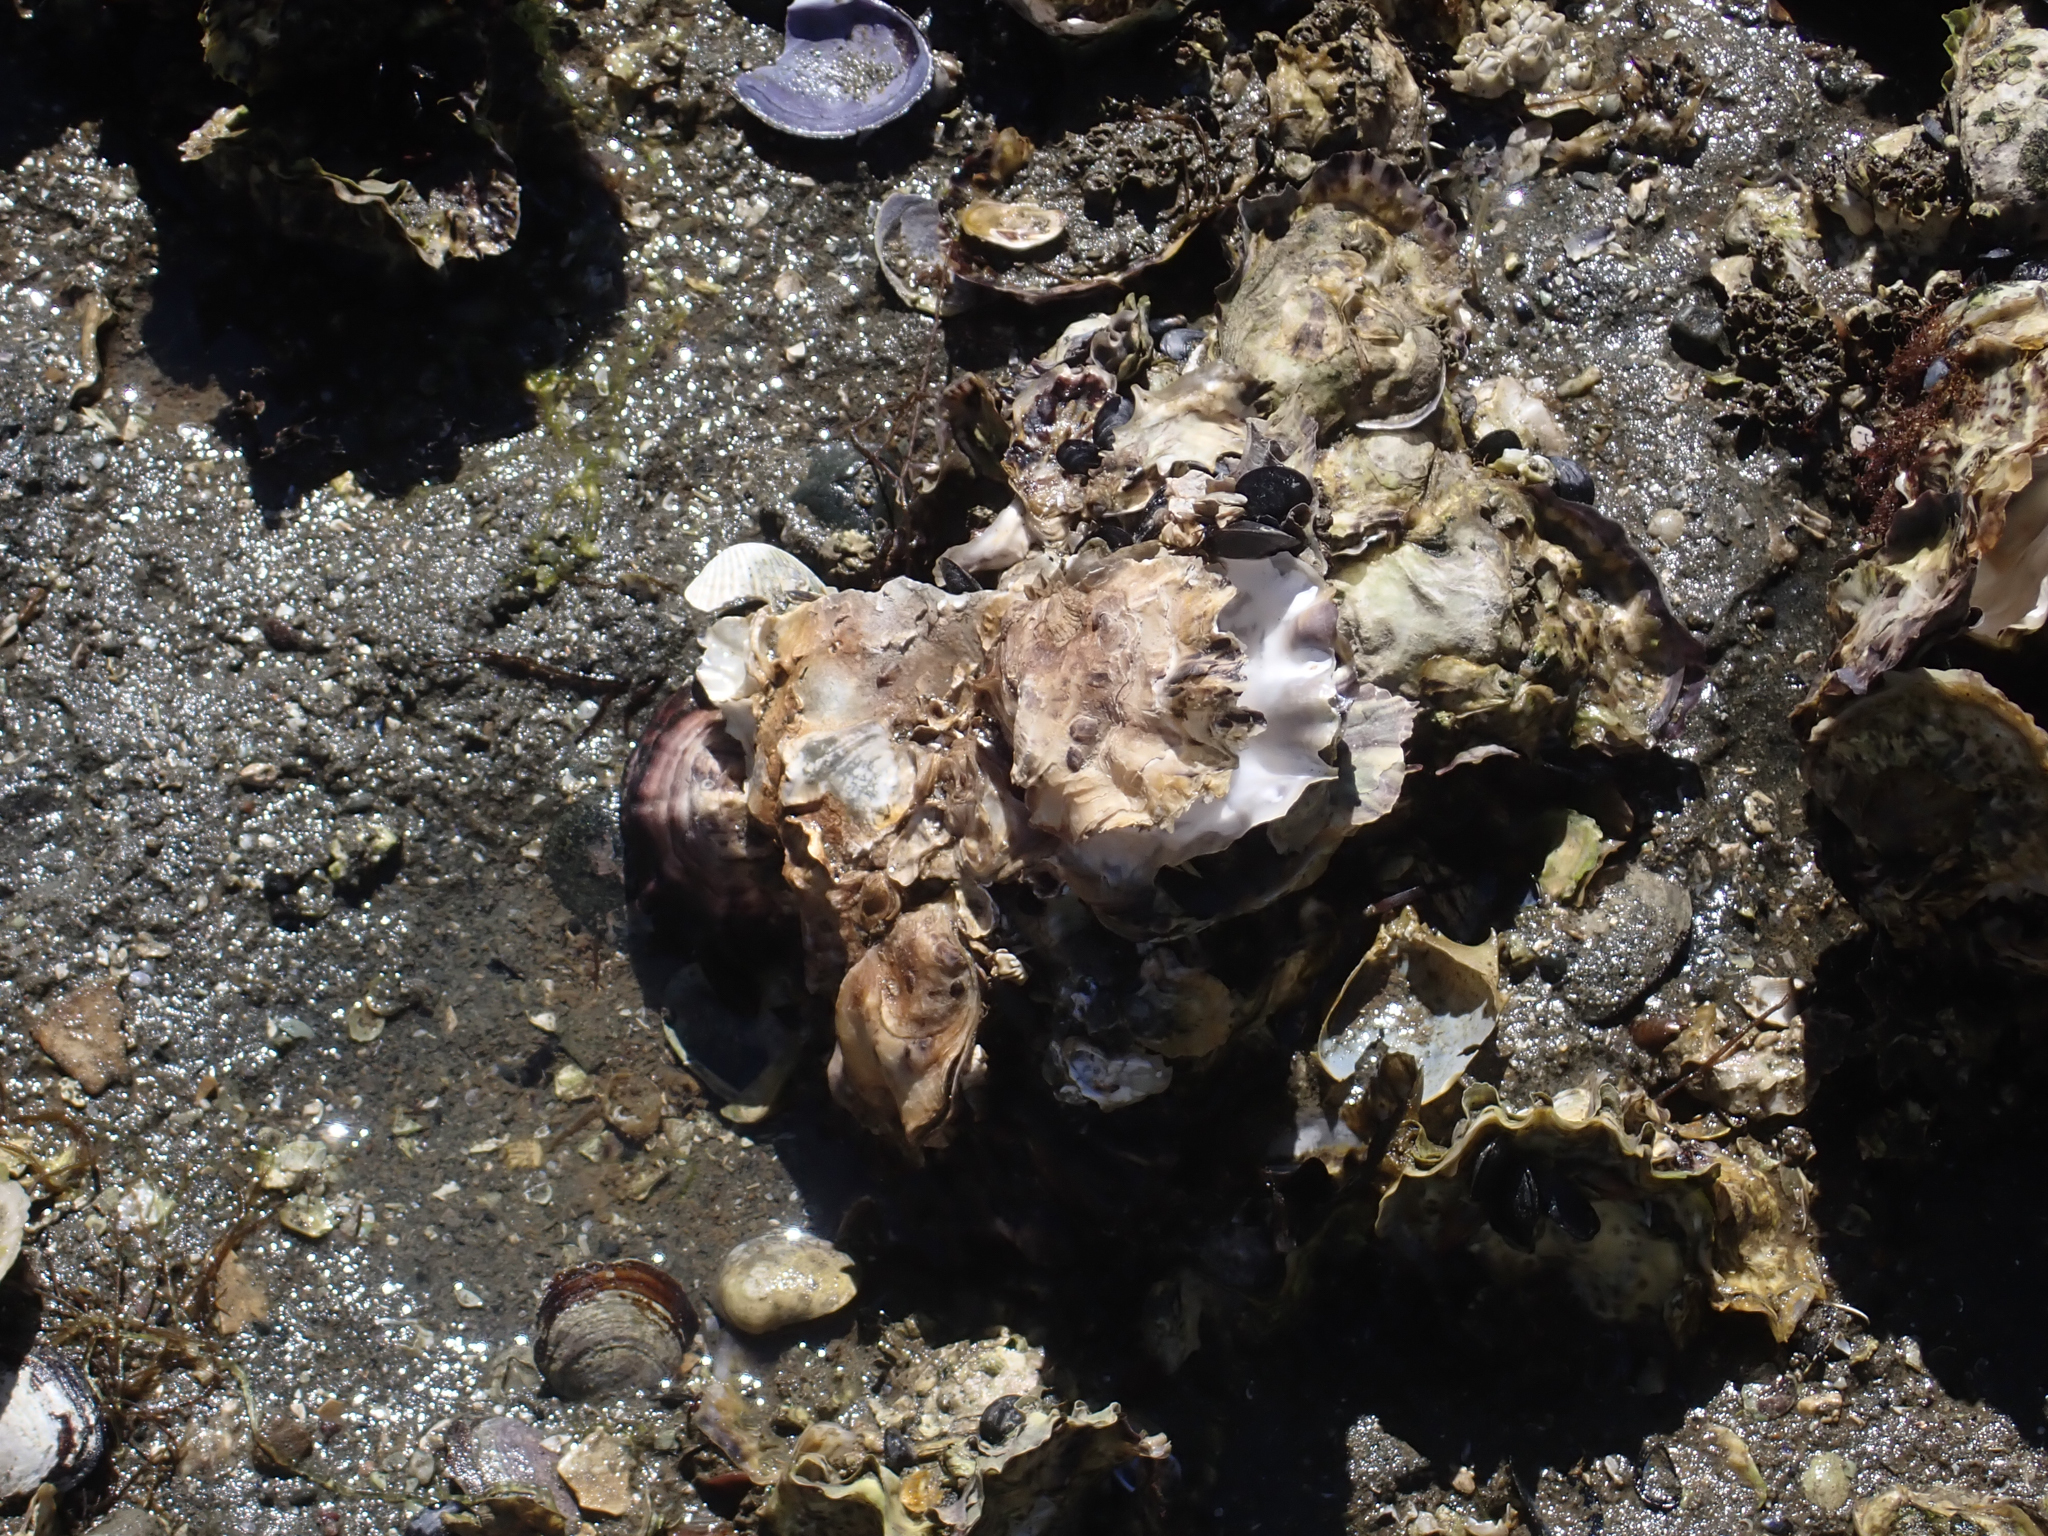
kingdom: Animalia
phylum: Mollusca
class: Bivalvia
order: Ostreida
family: Ostreidae
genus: Magallana
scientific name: Magallana gigas
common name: Pacific oyster
